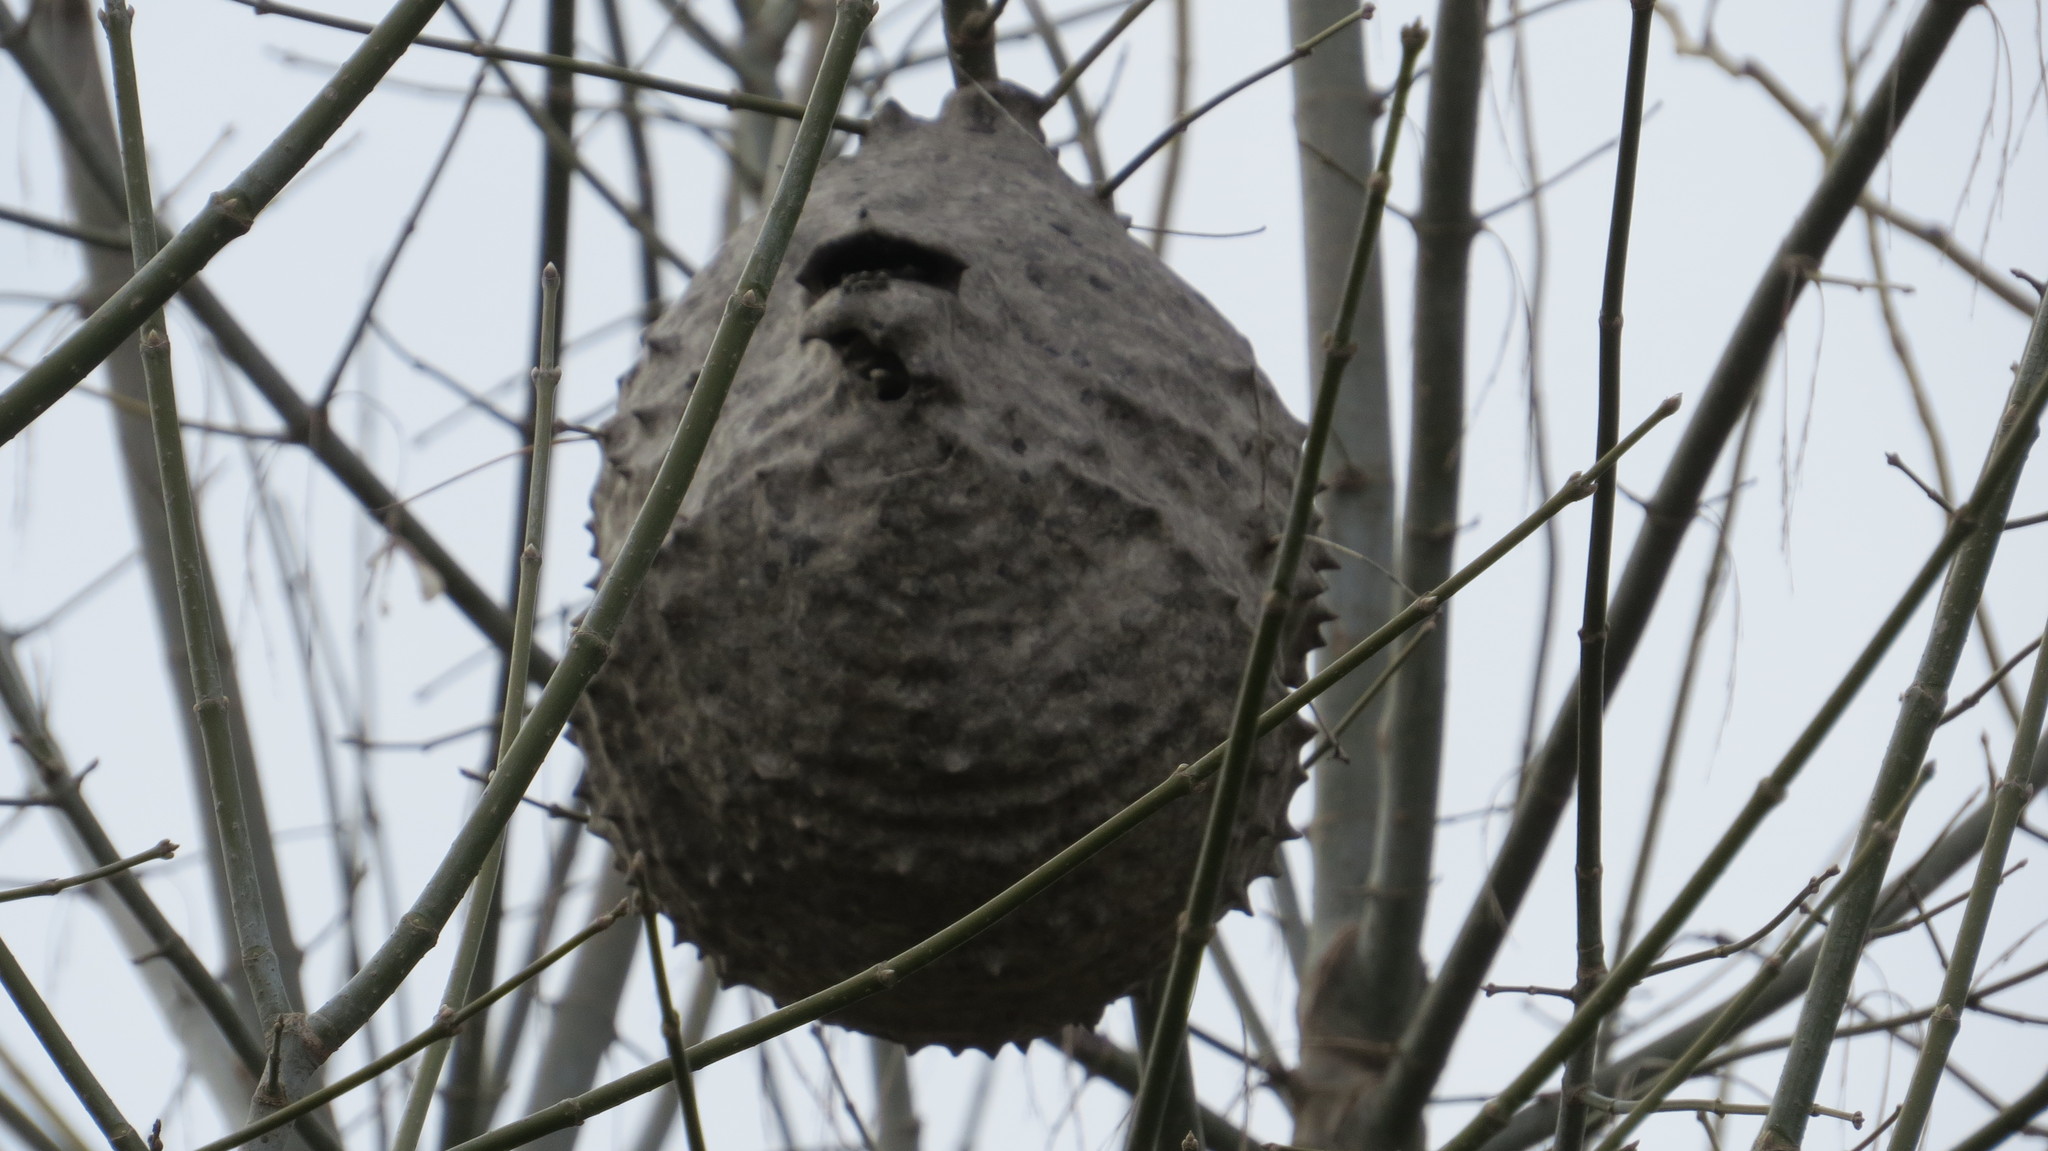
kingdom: Animalia
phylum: Arthropoda
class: Insecta
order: Hymenoptera
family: Eumenidae
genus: Polybia
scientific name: Polybia scutellaris
